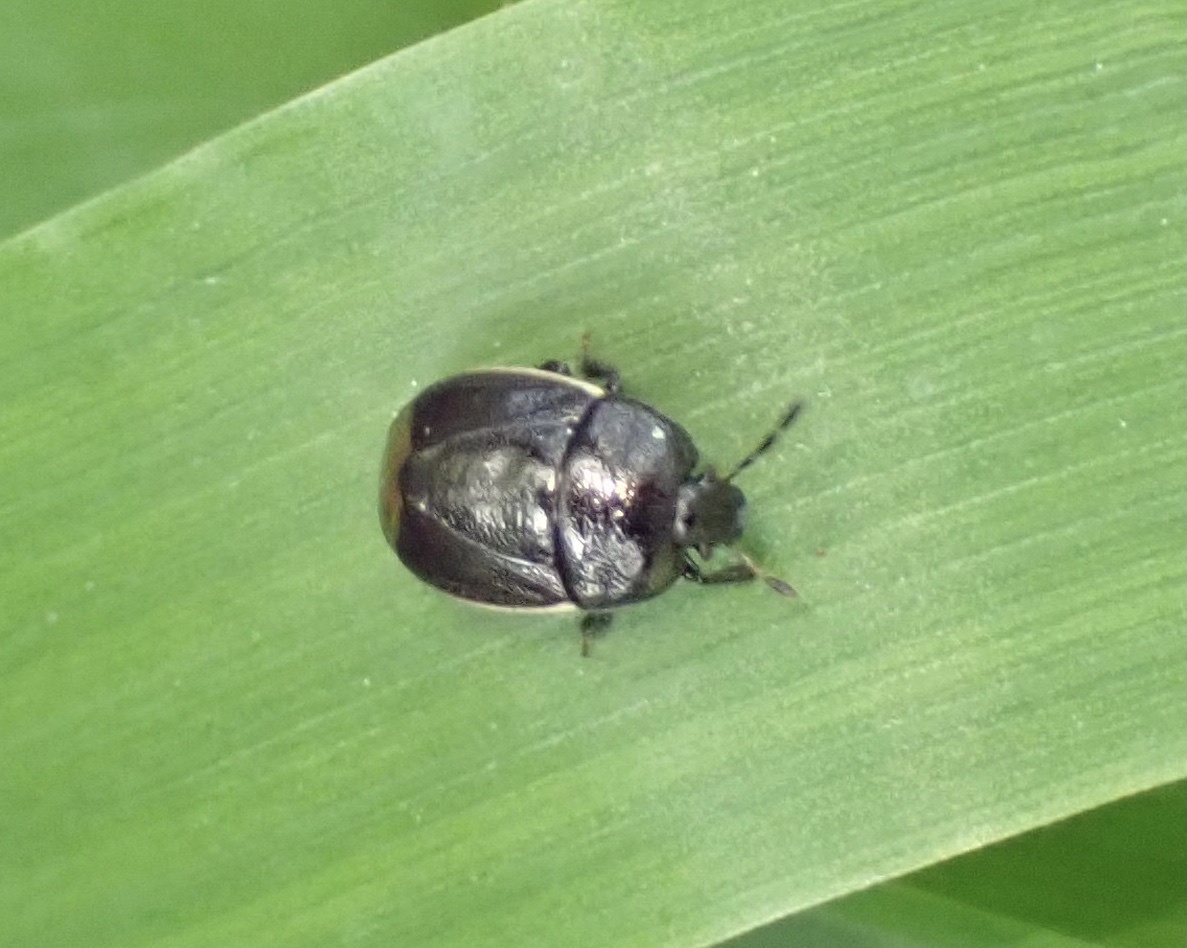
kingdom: Animalia
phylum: Arthropoda
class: Insecta
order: Hemiptera
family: Cydnidae
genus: Legnotus
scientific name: Legnotus limbosus
